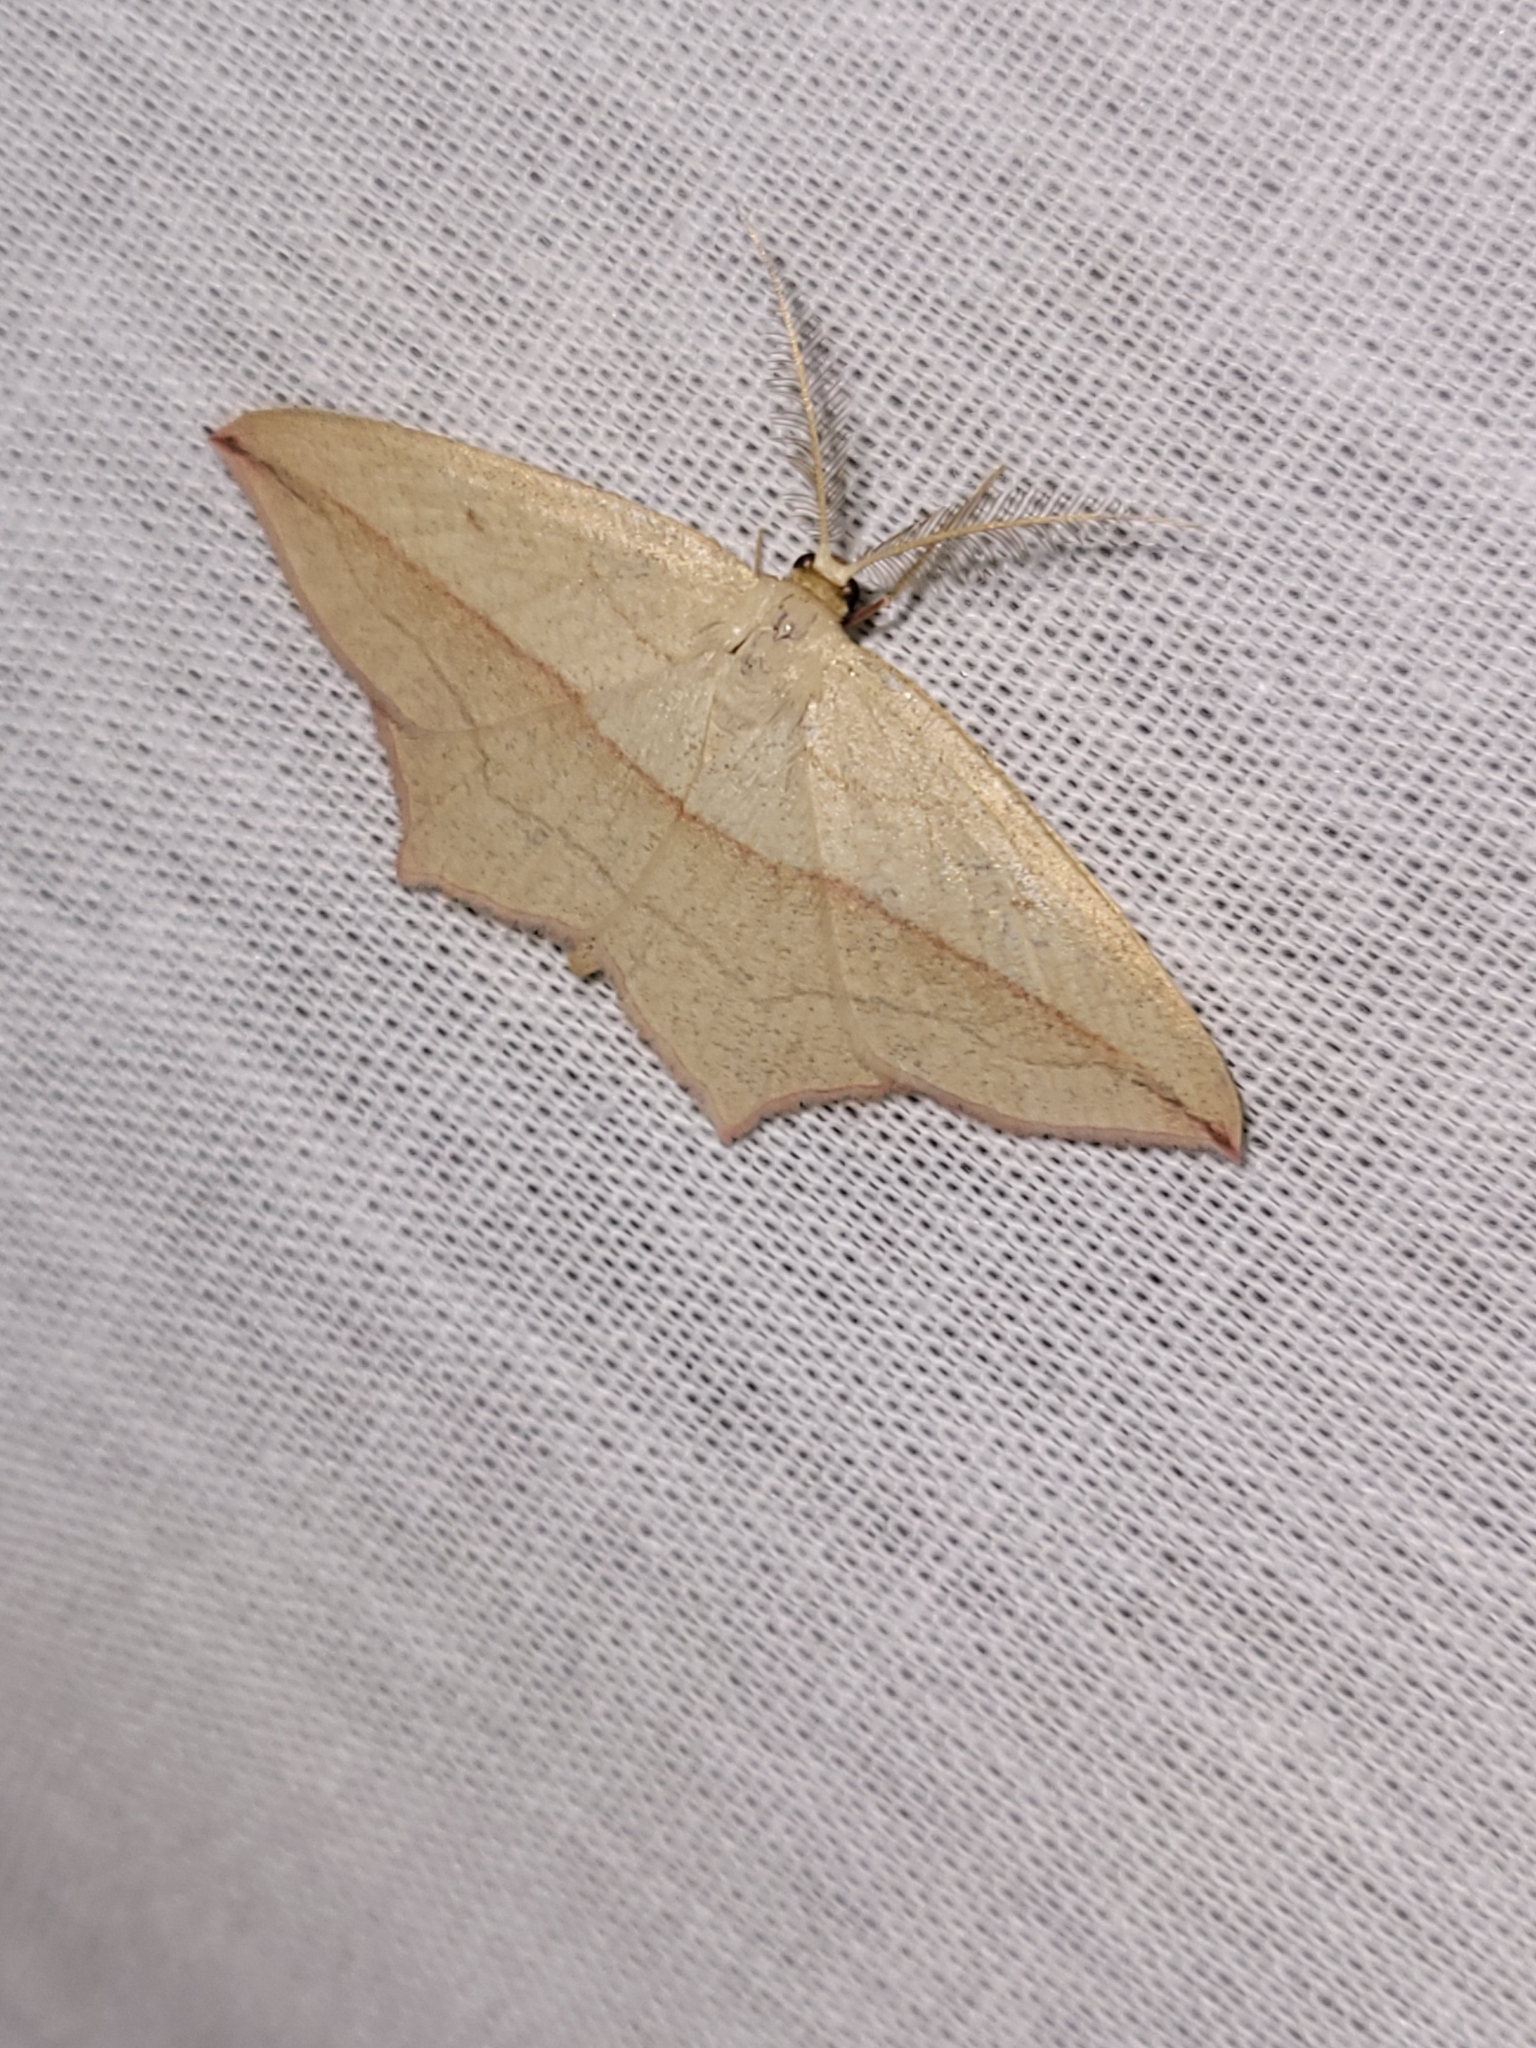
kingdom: Animalia
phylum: Arthropoda
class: Insecta
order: Lepidoptera
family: Geometridae
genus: Timandra
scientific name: Timandra comae
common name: Blood-vein
